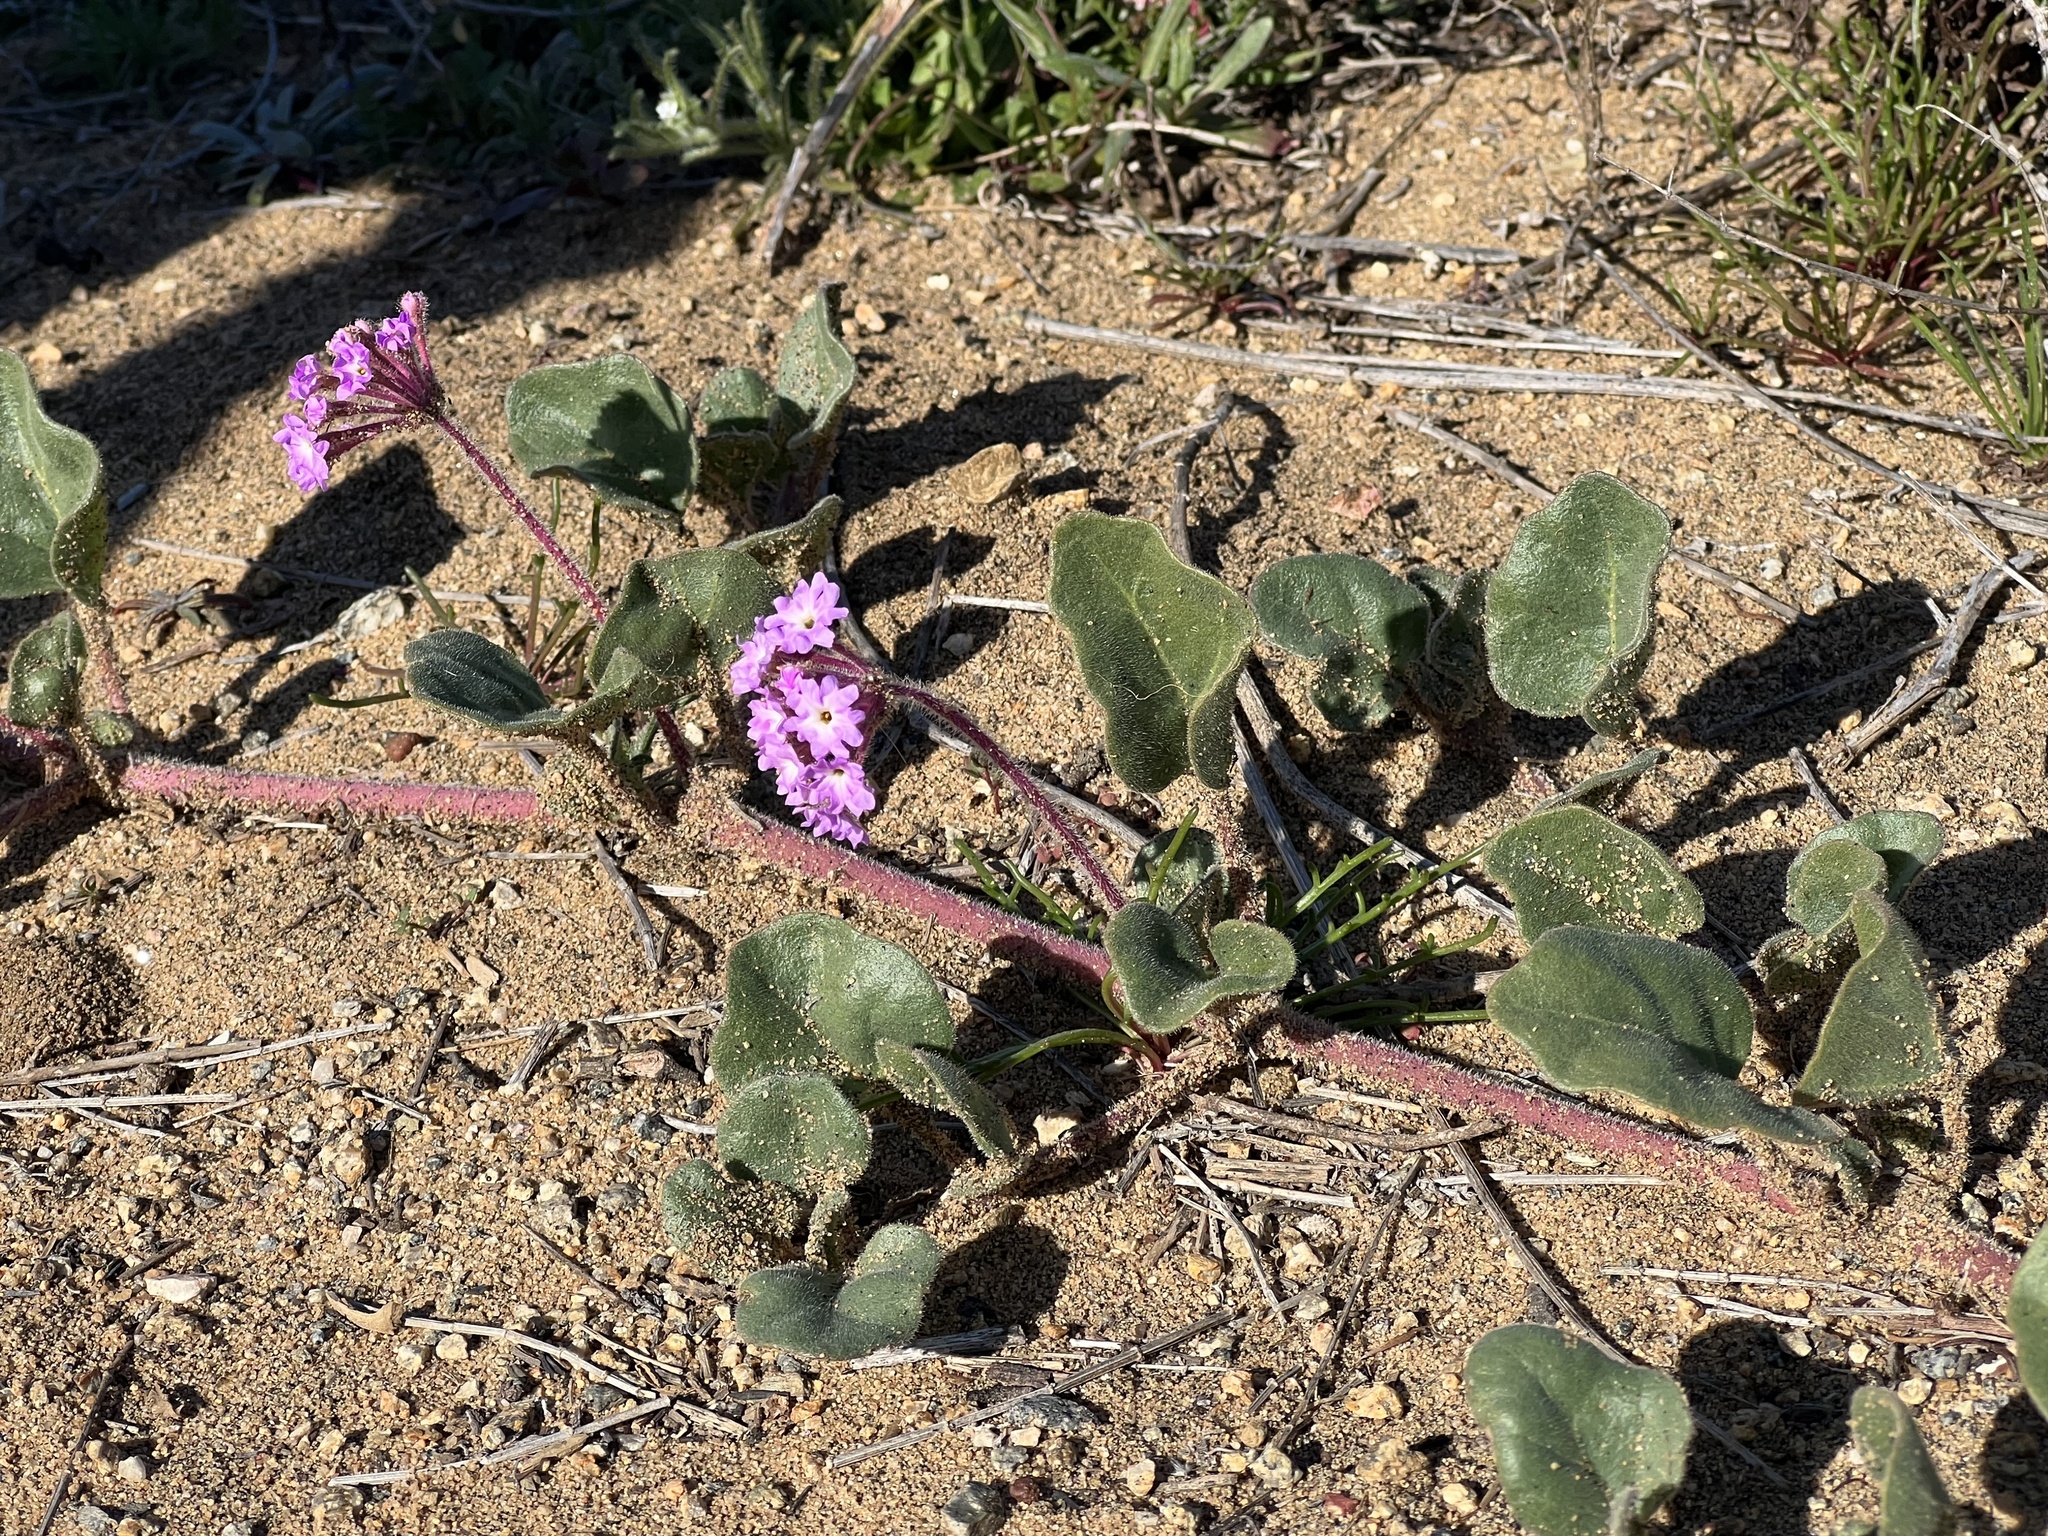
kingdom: Plantae
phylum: Tracheophyta
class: Magnoliopsida
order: Caryophyllales
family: Nyctaginaceae
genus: Abronia
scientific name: Abronia umbellata
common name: Sand-verbena
